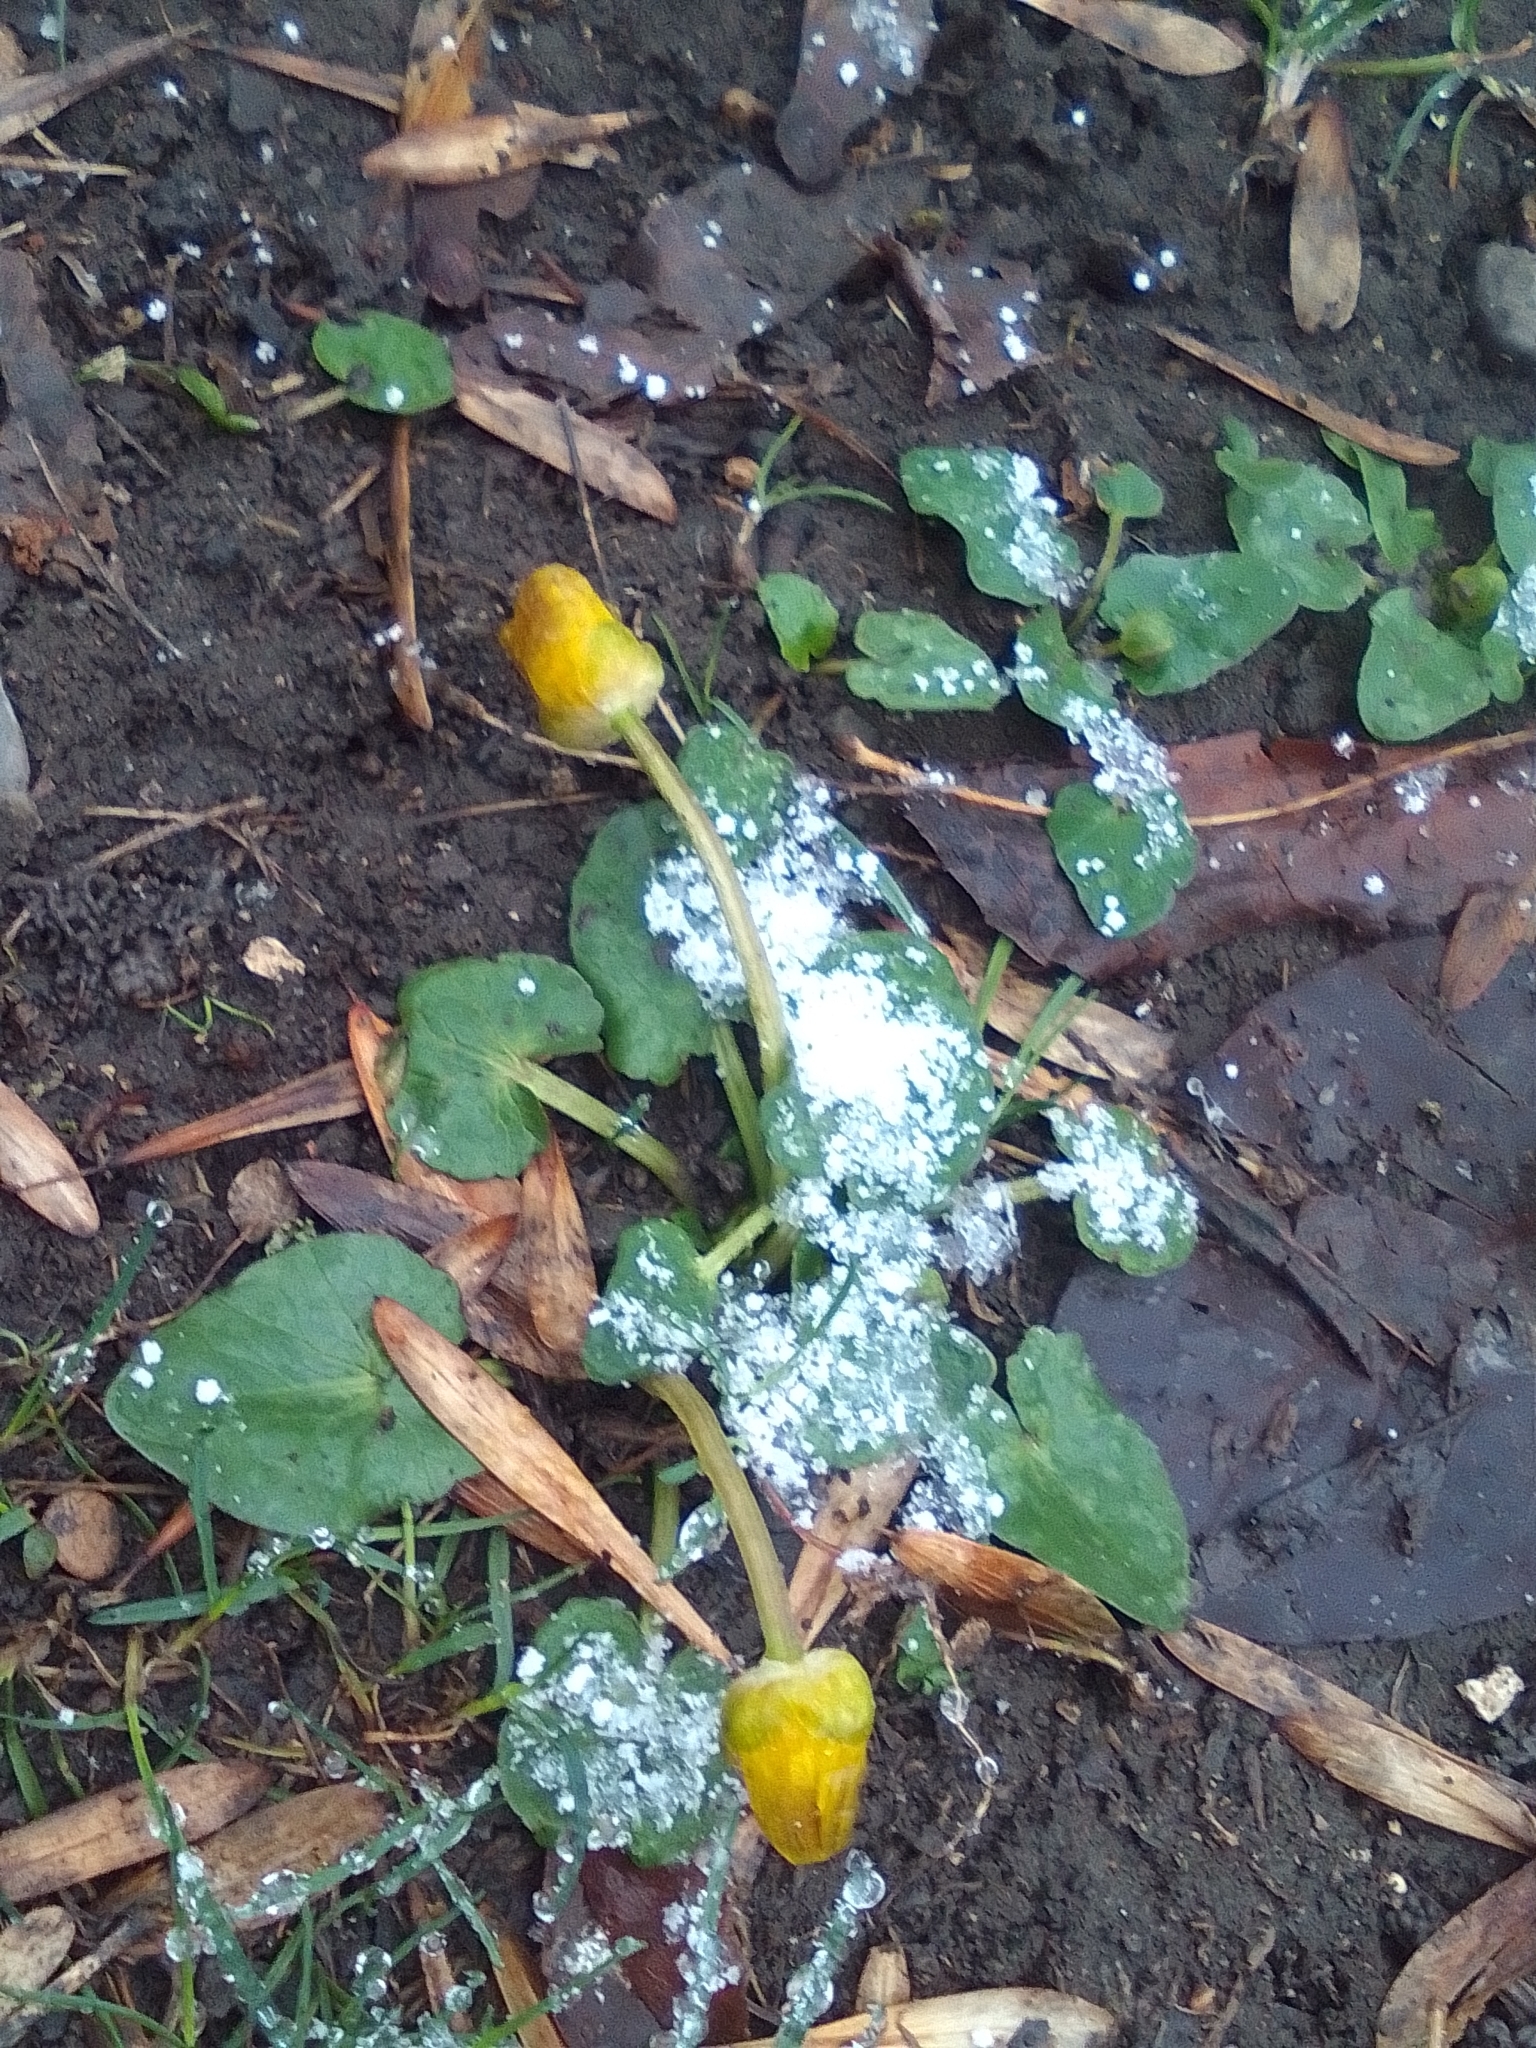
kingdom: Plantae
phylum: Tracheophyta
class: Magnoliopsida
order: Ranunculales
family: Ranunculaceae
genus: Ficaria
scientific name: Ficaria verna
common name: Lesser celandine
